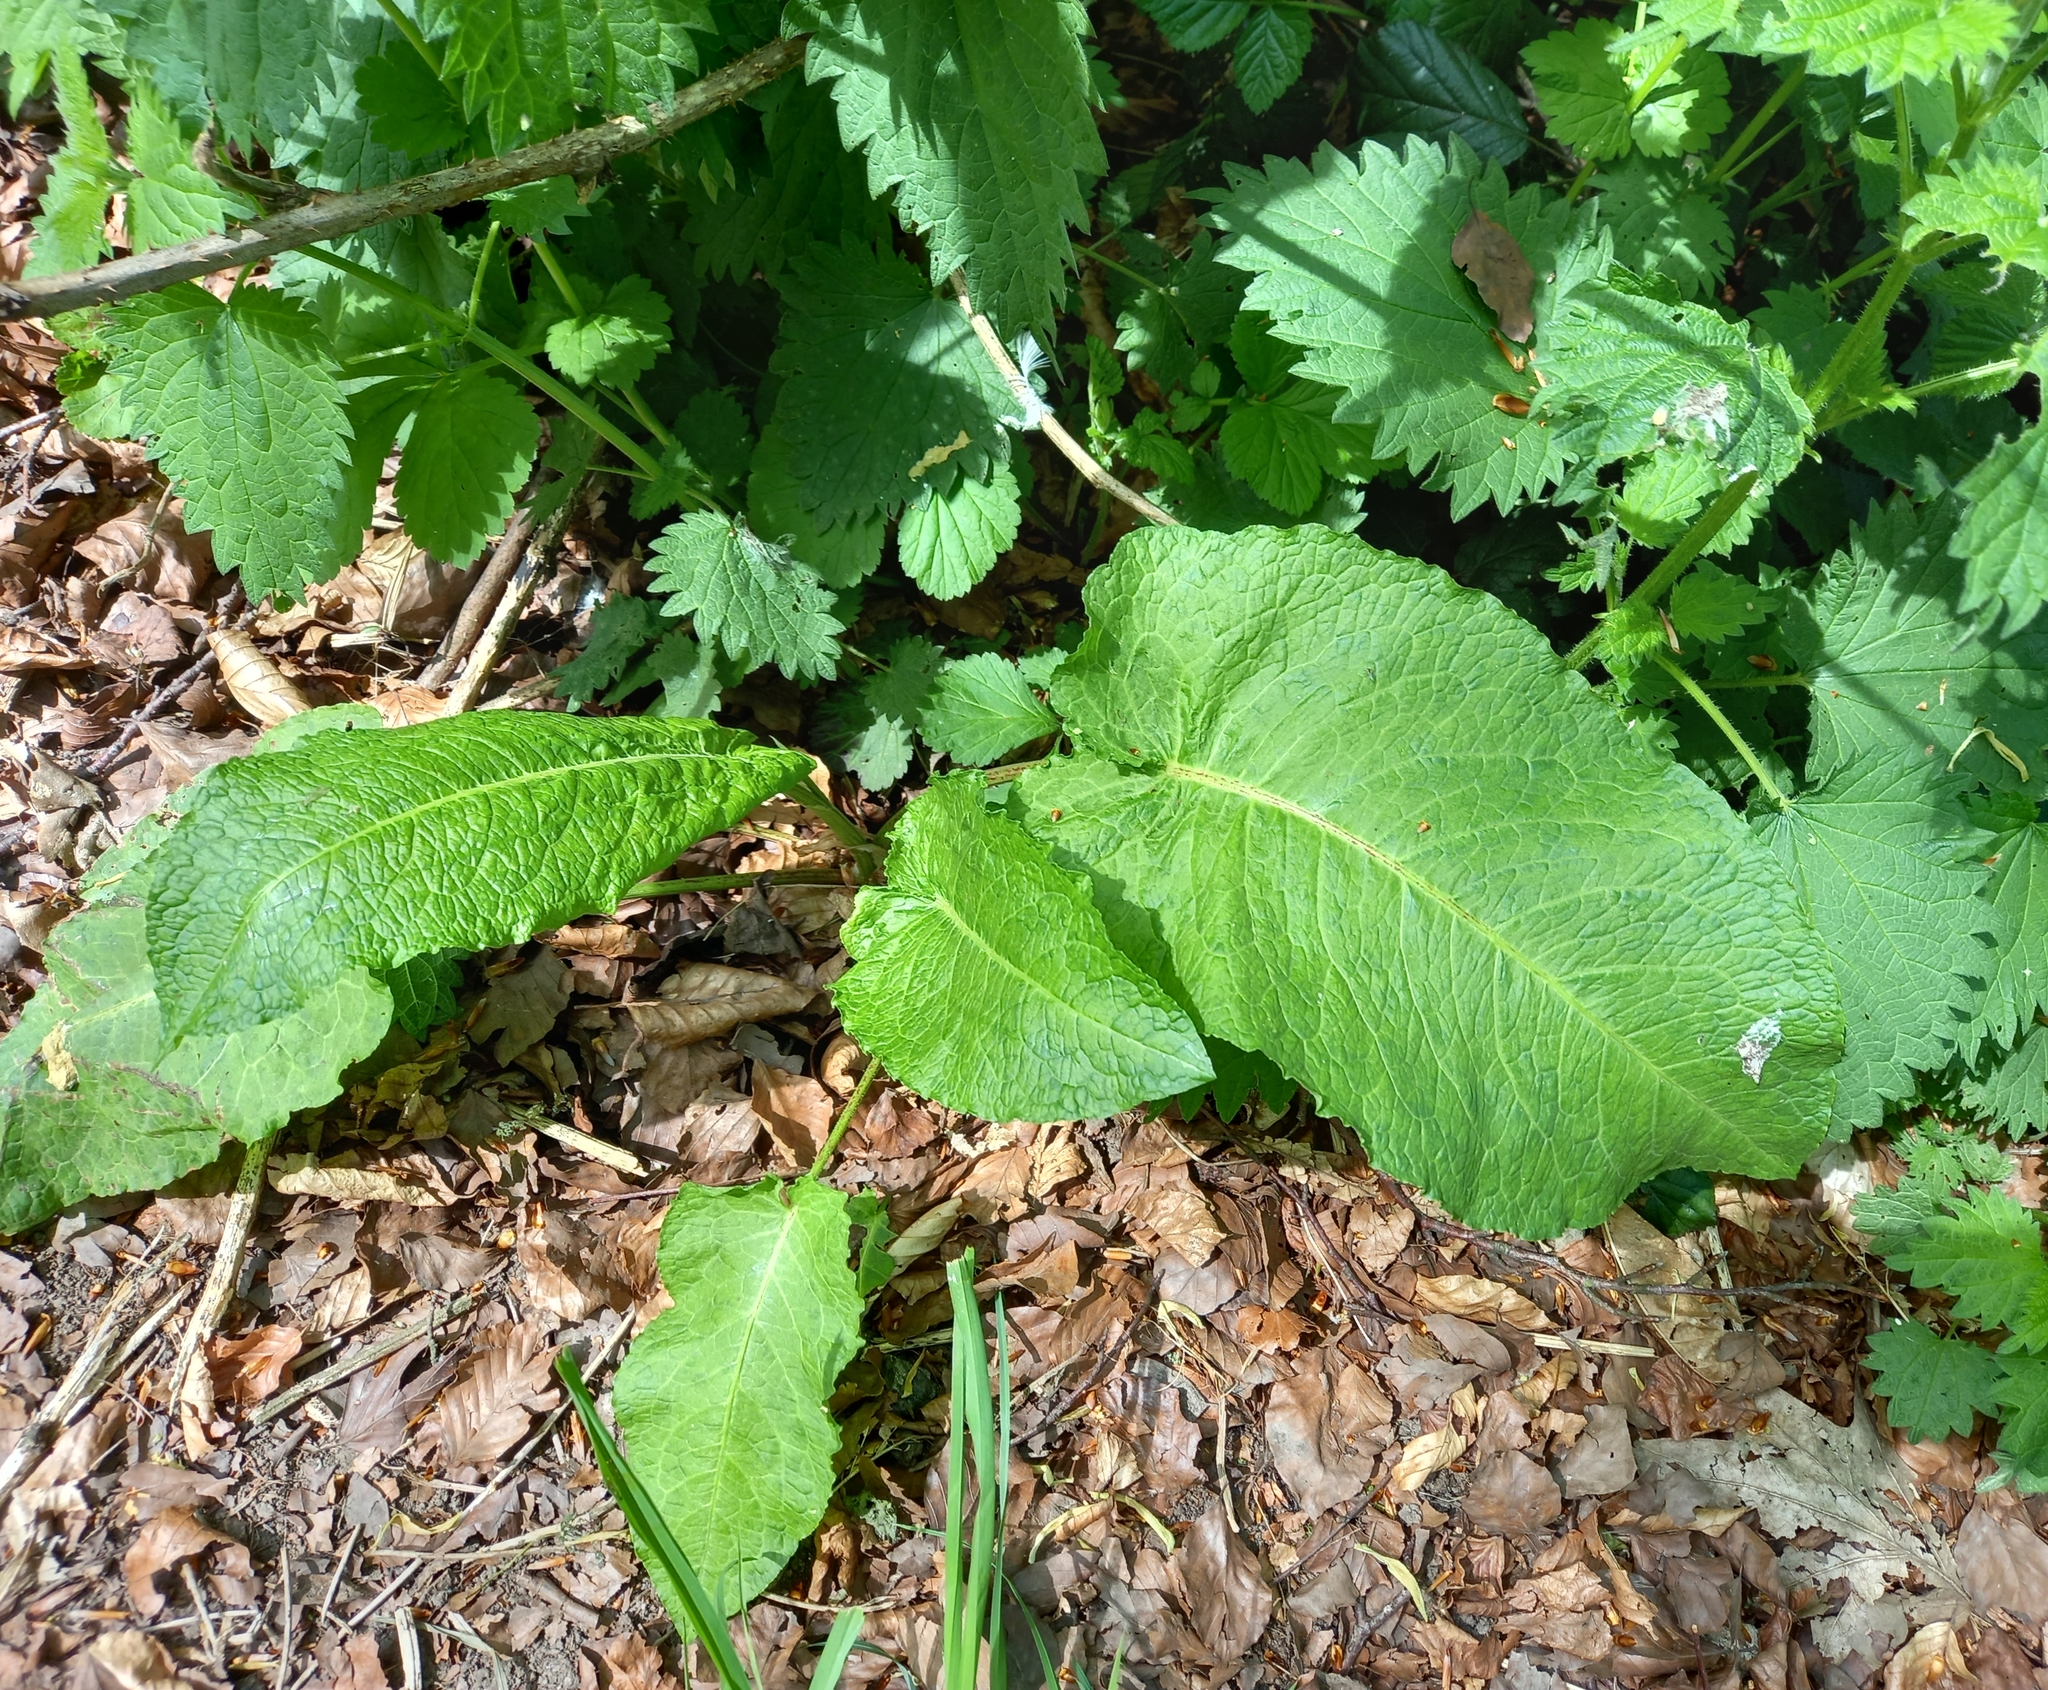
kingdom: Plantae
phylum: Tracheophyta
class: Magnoliopsida
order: Caryophyllales
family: Polygonaceae
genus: Rumex
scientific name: Rumex obtusifolius
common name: Bitter dock
